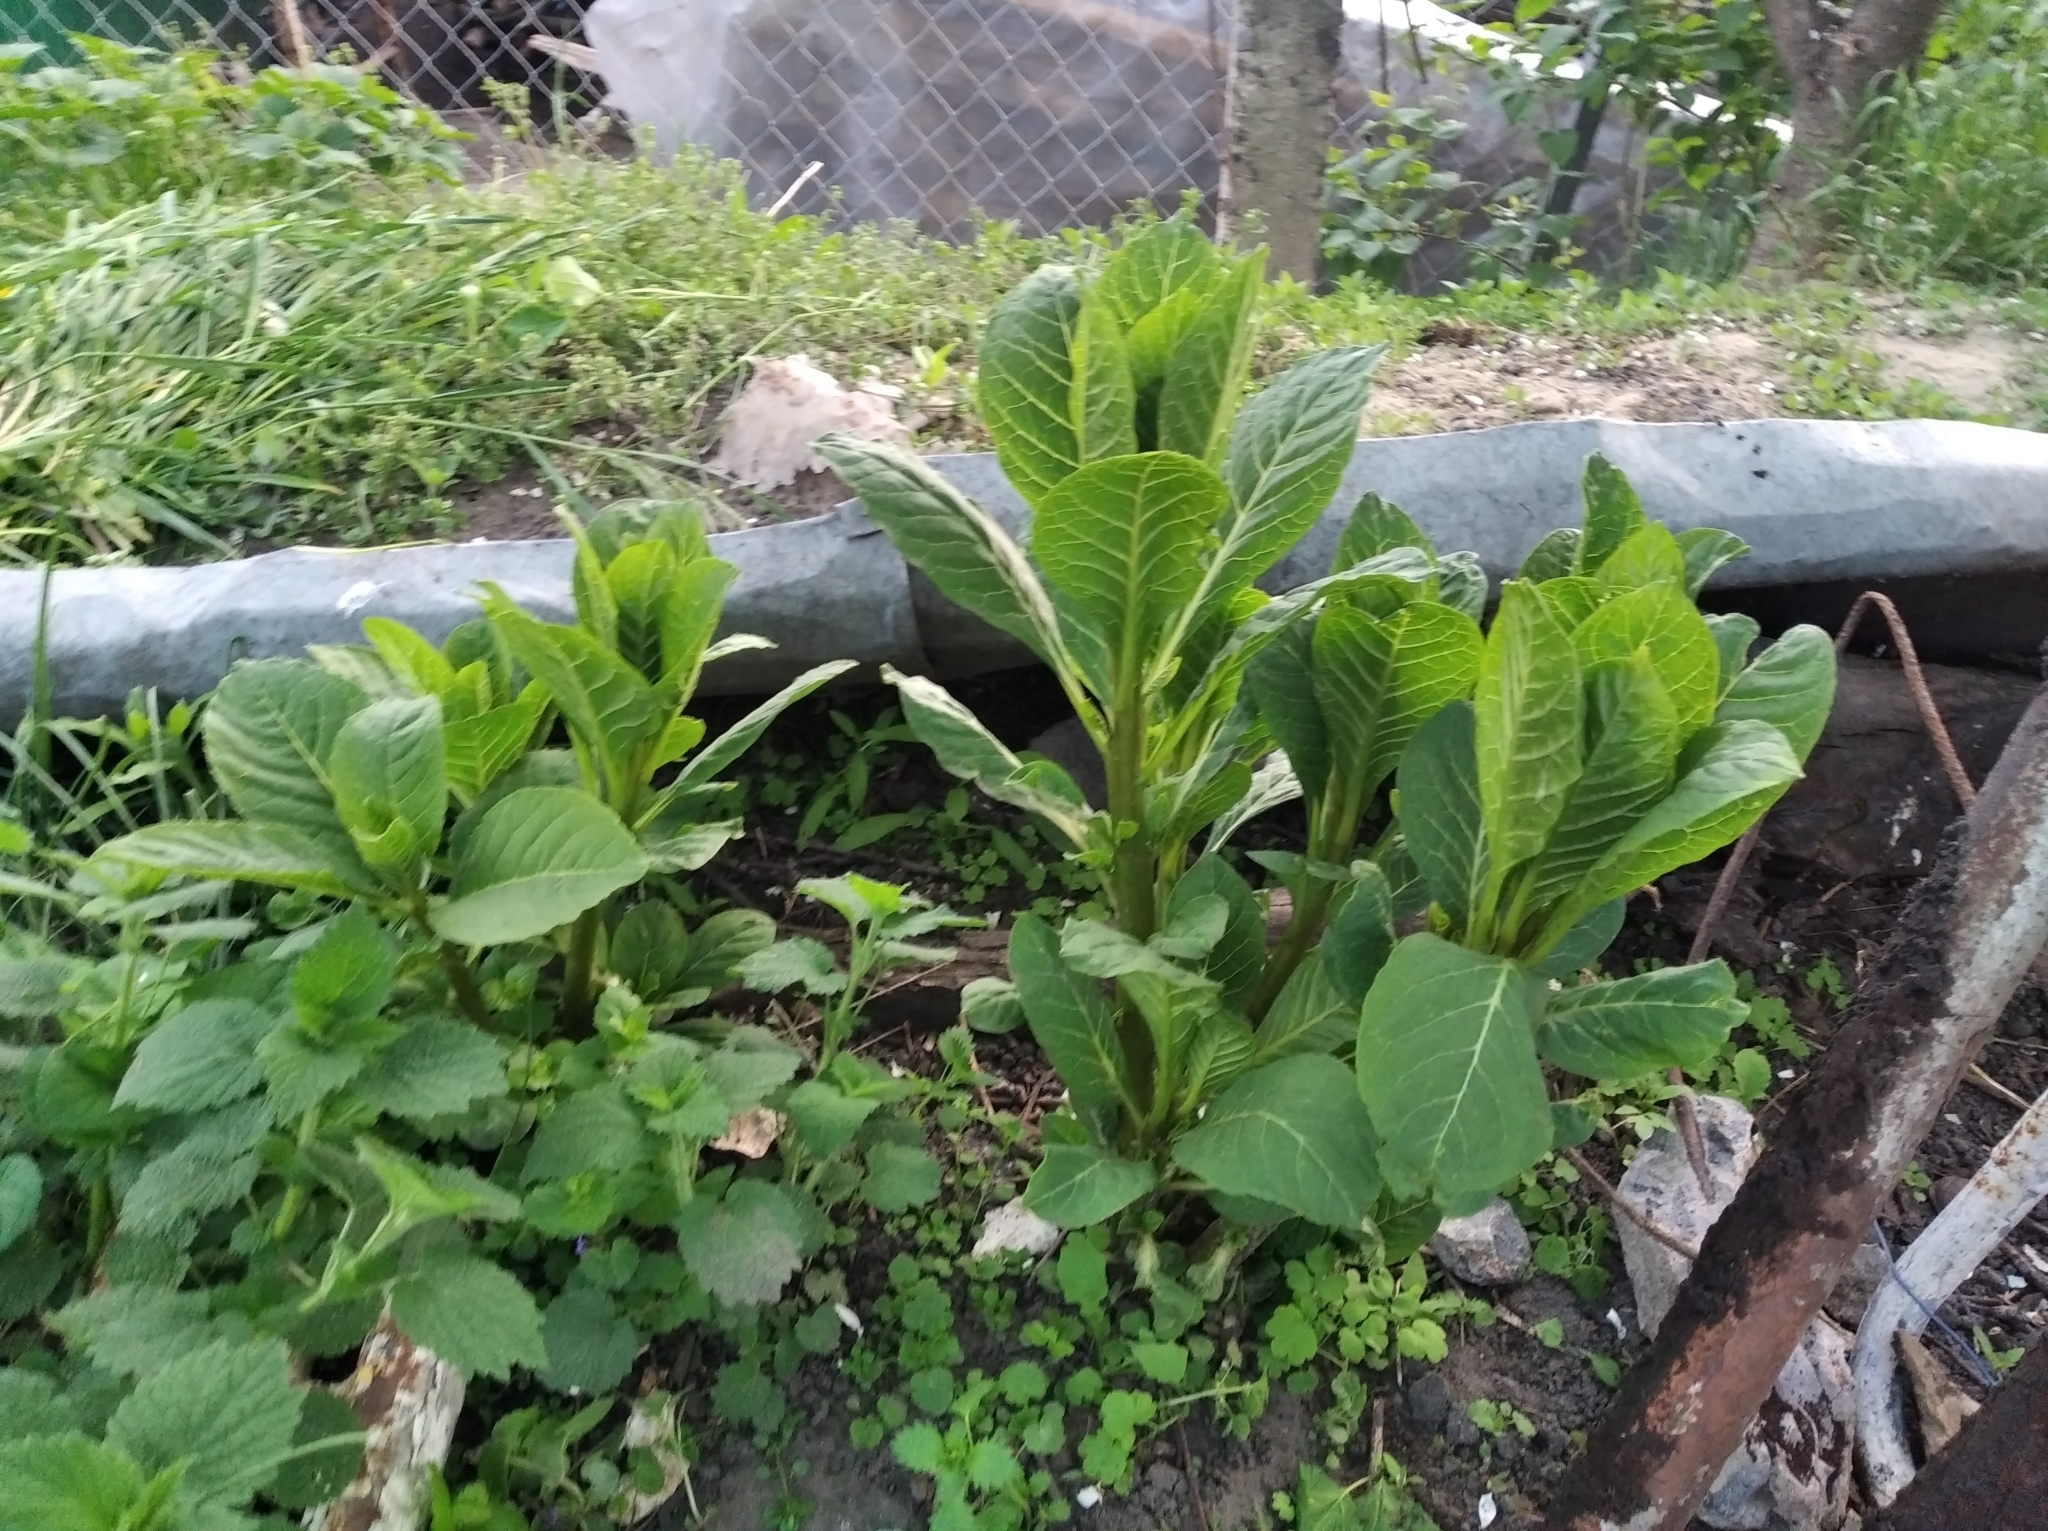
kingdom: Plantae
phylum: Tracheophyta
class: Magnoliopsida
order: Caryophyllales
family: Phytolaccaceae
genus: Phytolacca
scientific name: Phytolacca acinosa
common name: Indian pokeweed
